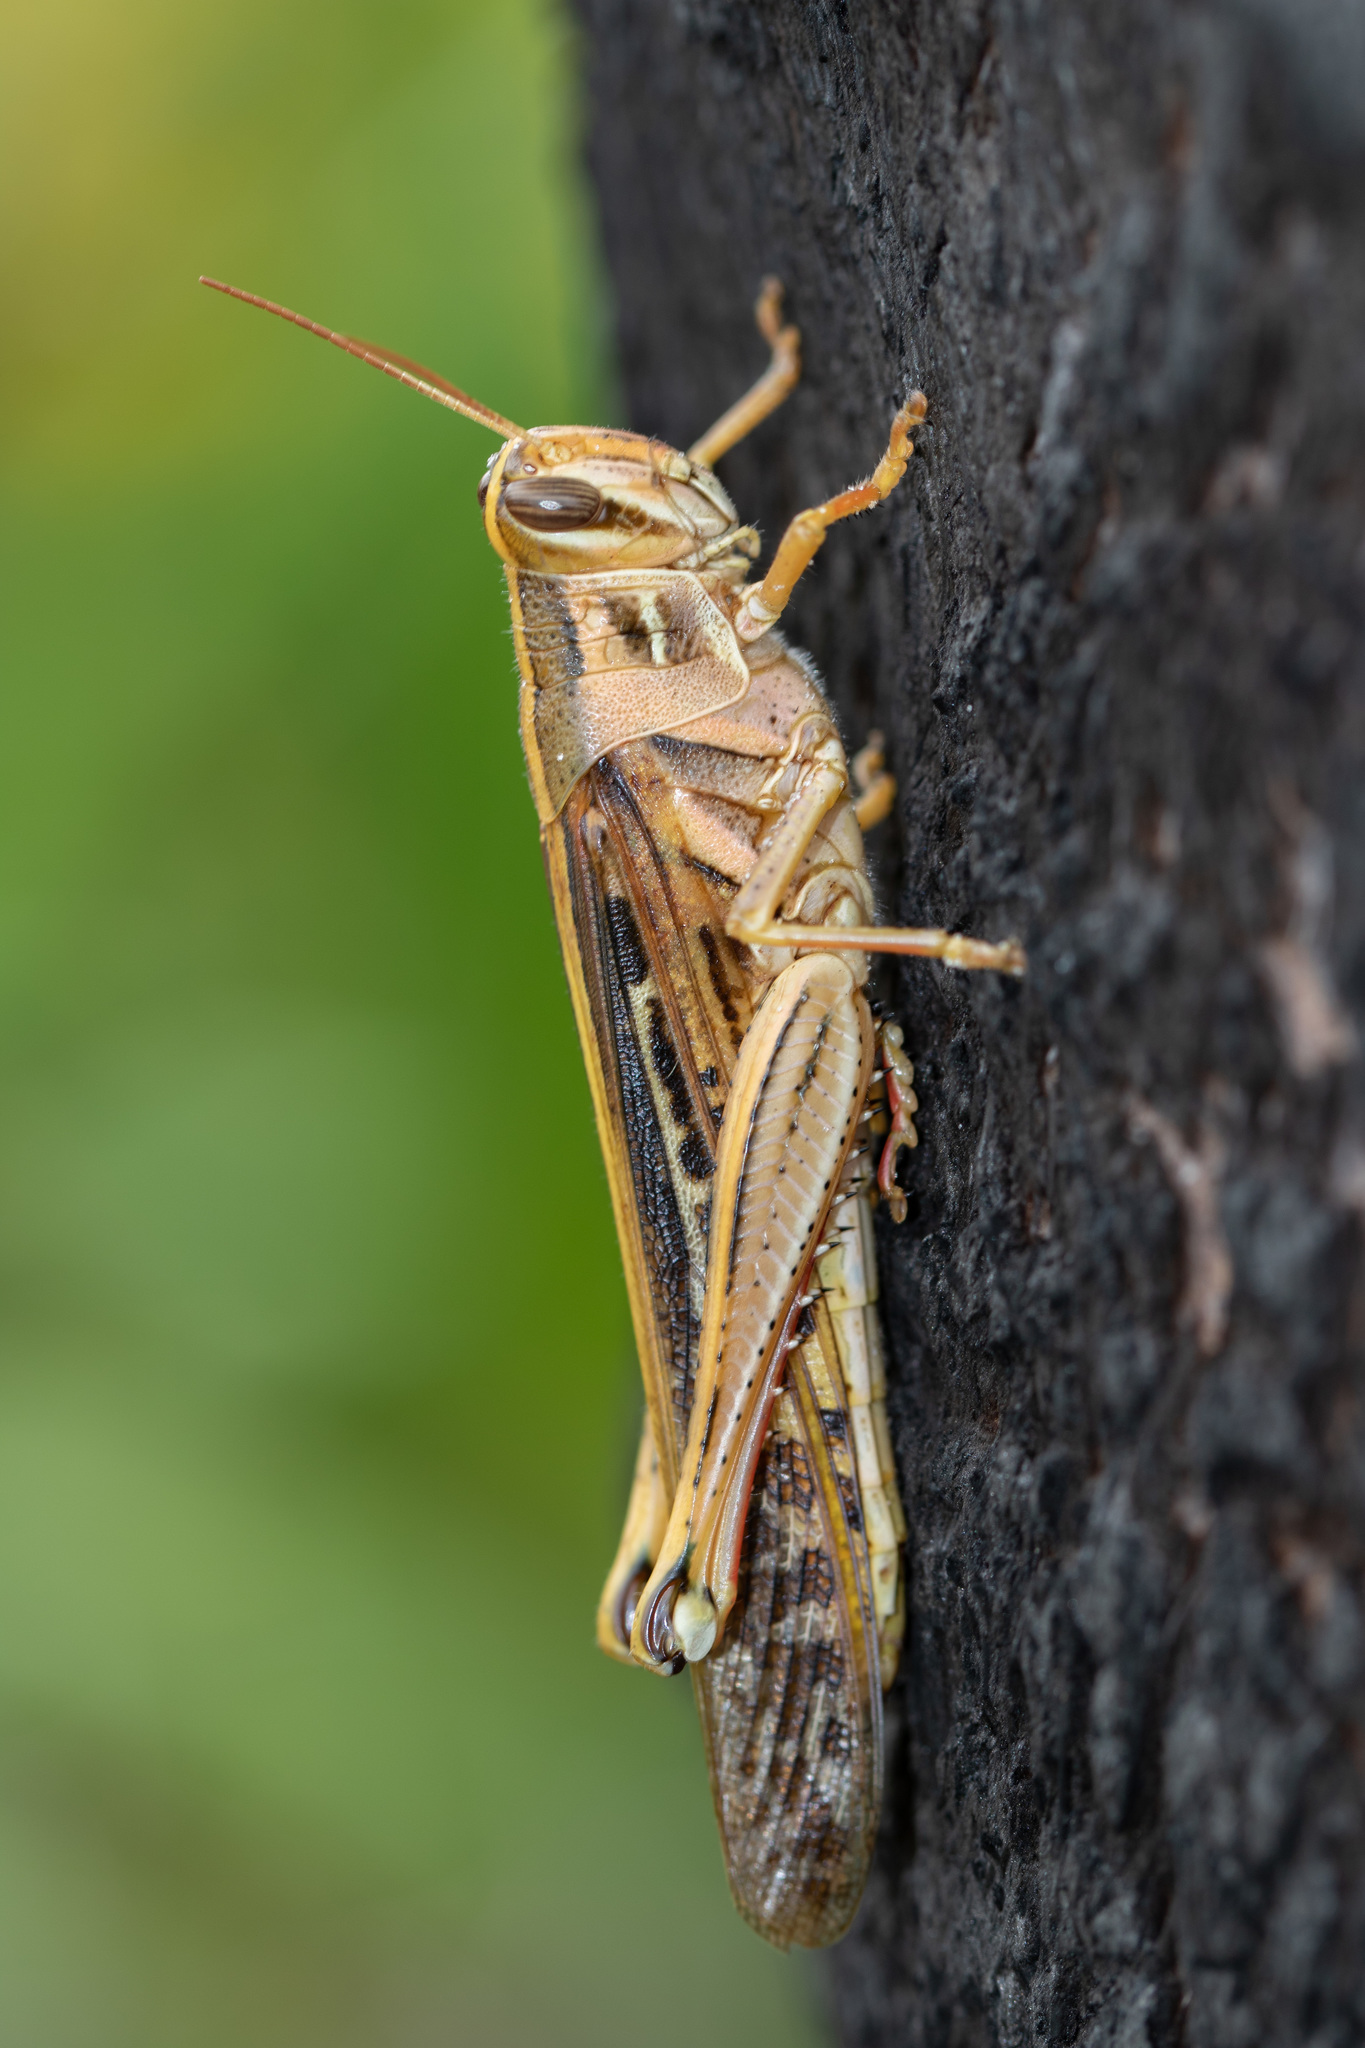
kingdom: Animalia
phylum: Arthropoda
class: Insecta
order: Orthoptera
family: Acrididae
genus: Schistocerca
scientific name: Schistocerca americana
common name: American bird locust
